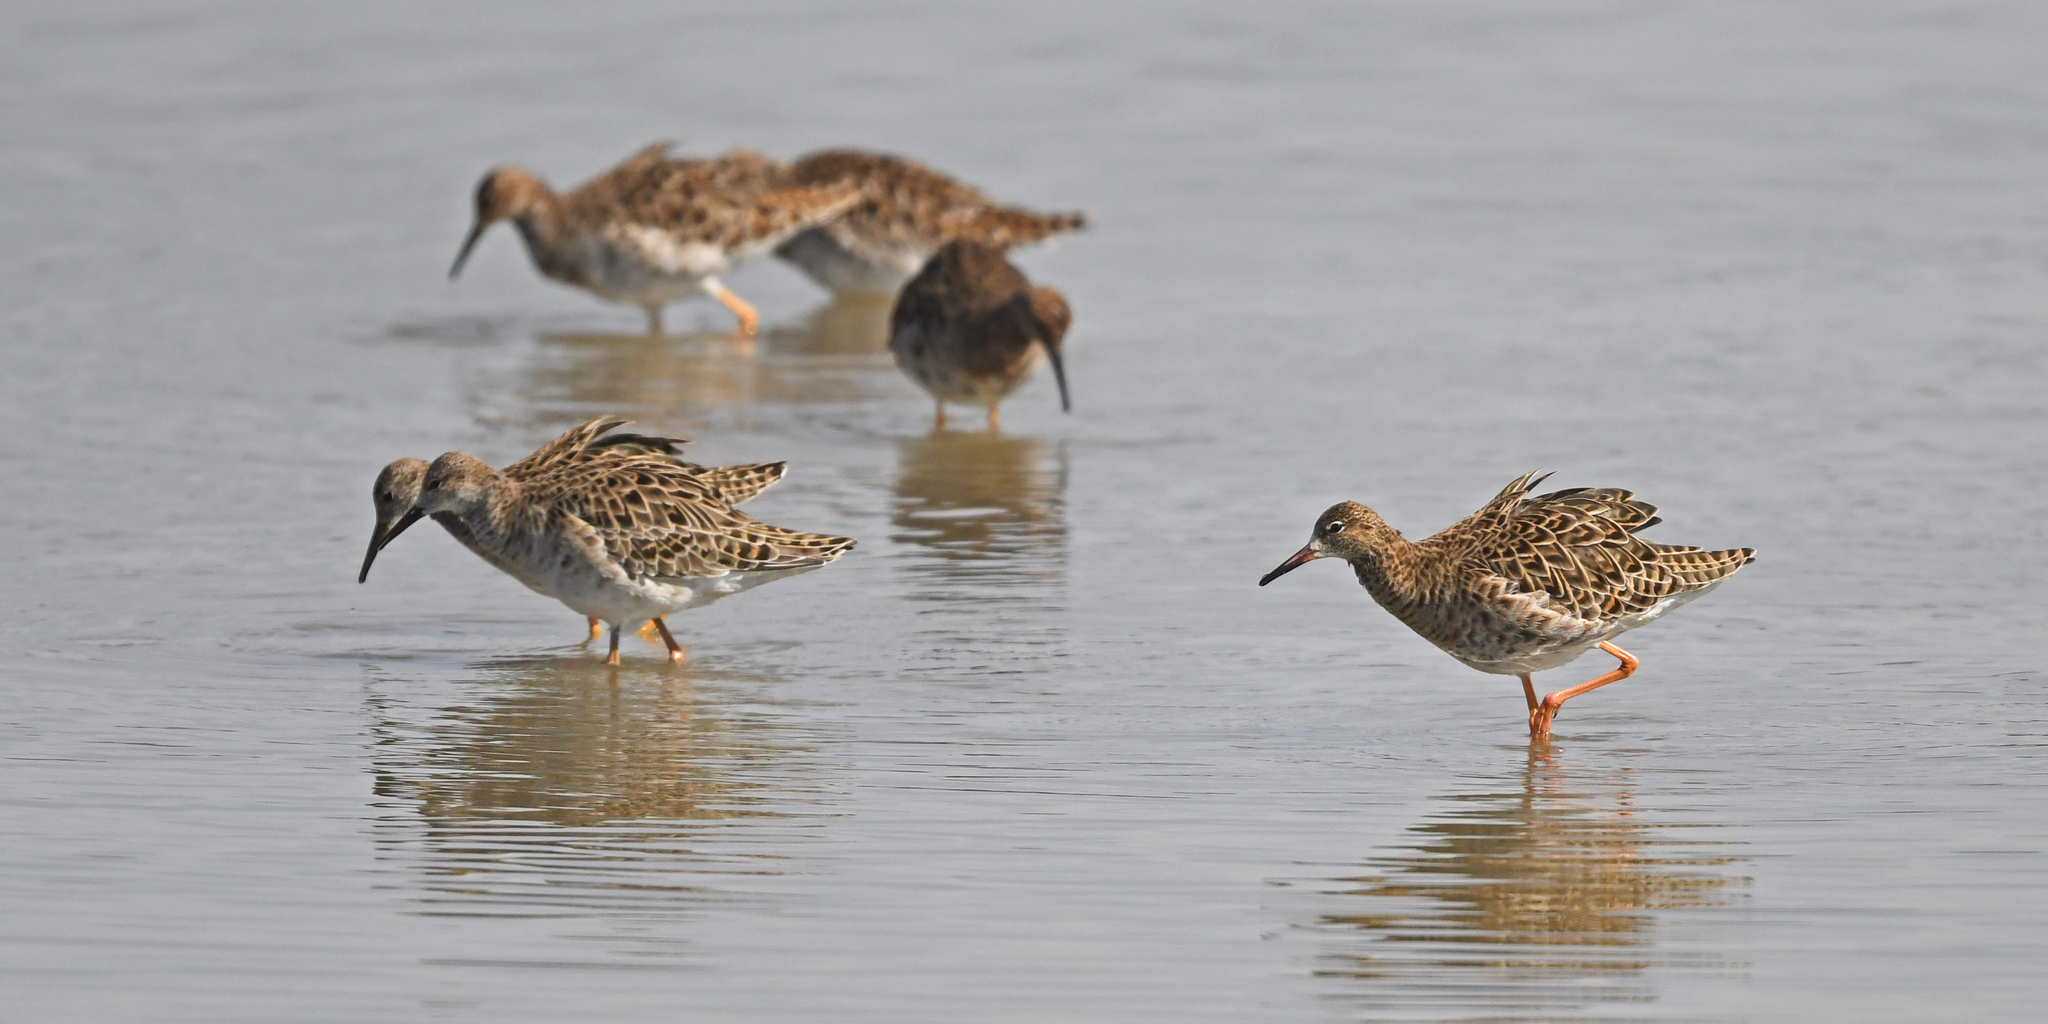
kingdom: Animalia
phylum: Chordata
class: Aves
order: Charadriiformes
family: Scolopacidae
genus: Calidris
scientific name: Calidris pugnax
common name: Ruff
